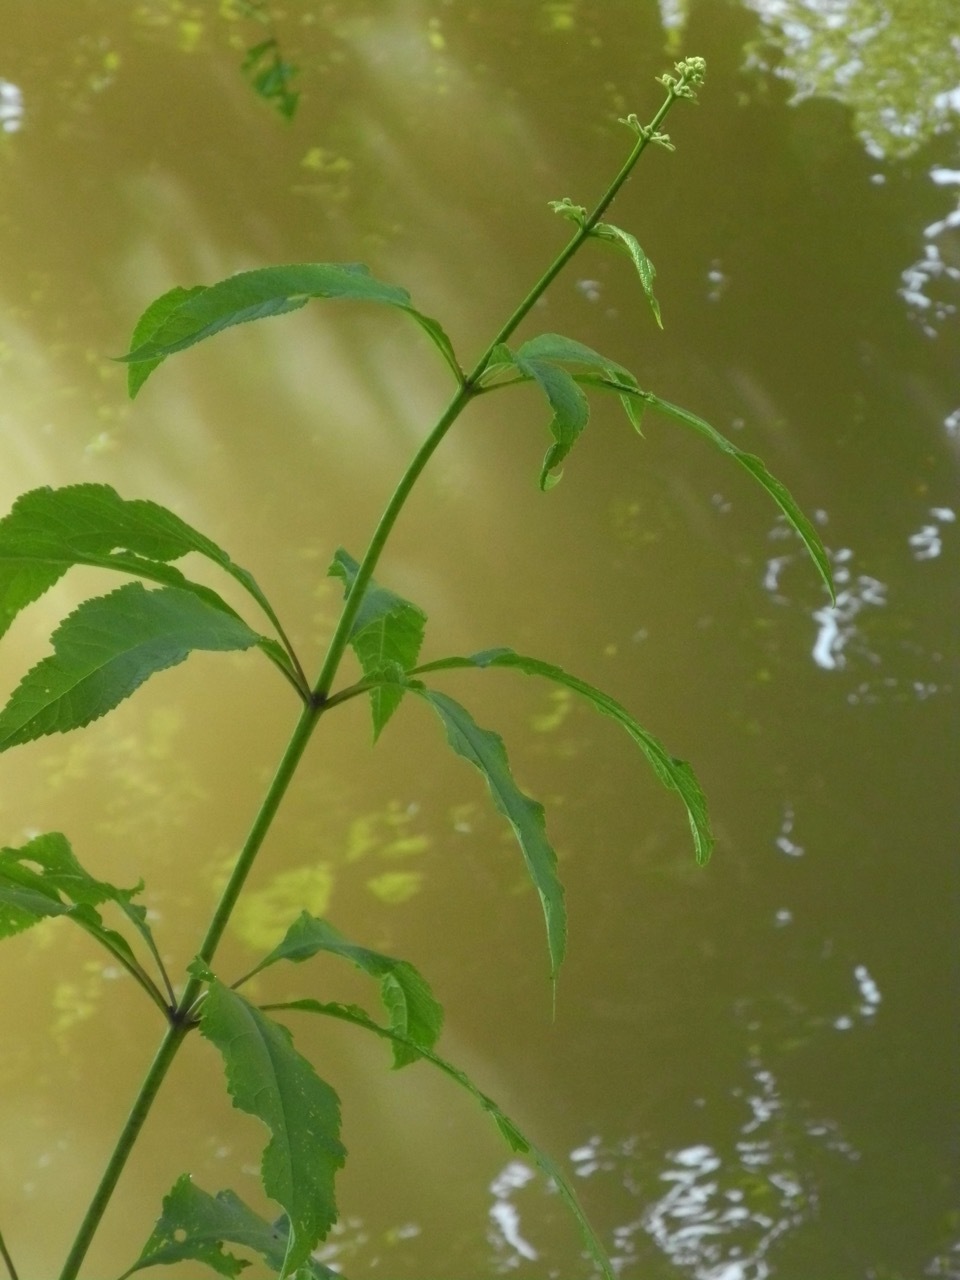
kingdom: Plantae
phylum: Tracheophyta
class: Magnoliopsida
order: Asterales
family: Asteraceae
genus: Eutrochium
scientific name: Eutrochium fistulosum
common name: Trumpetweed
